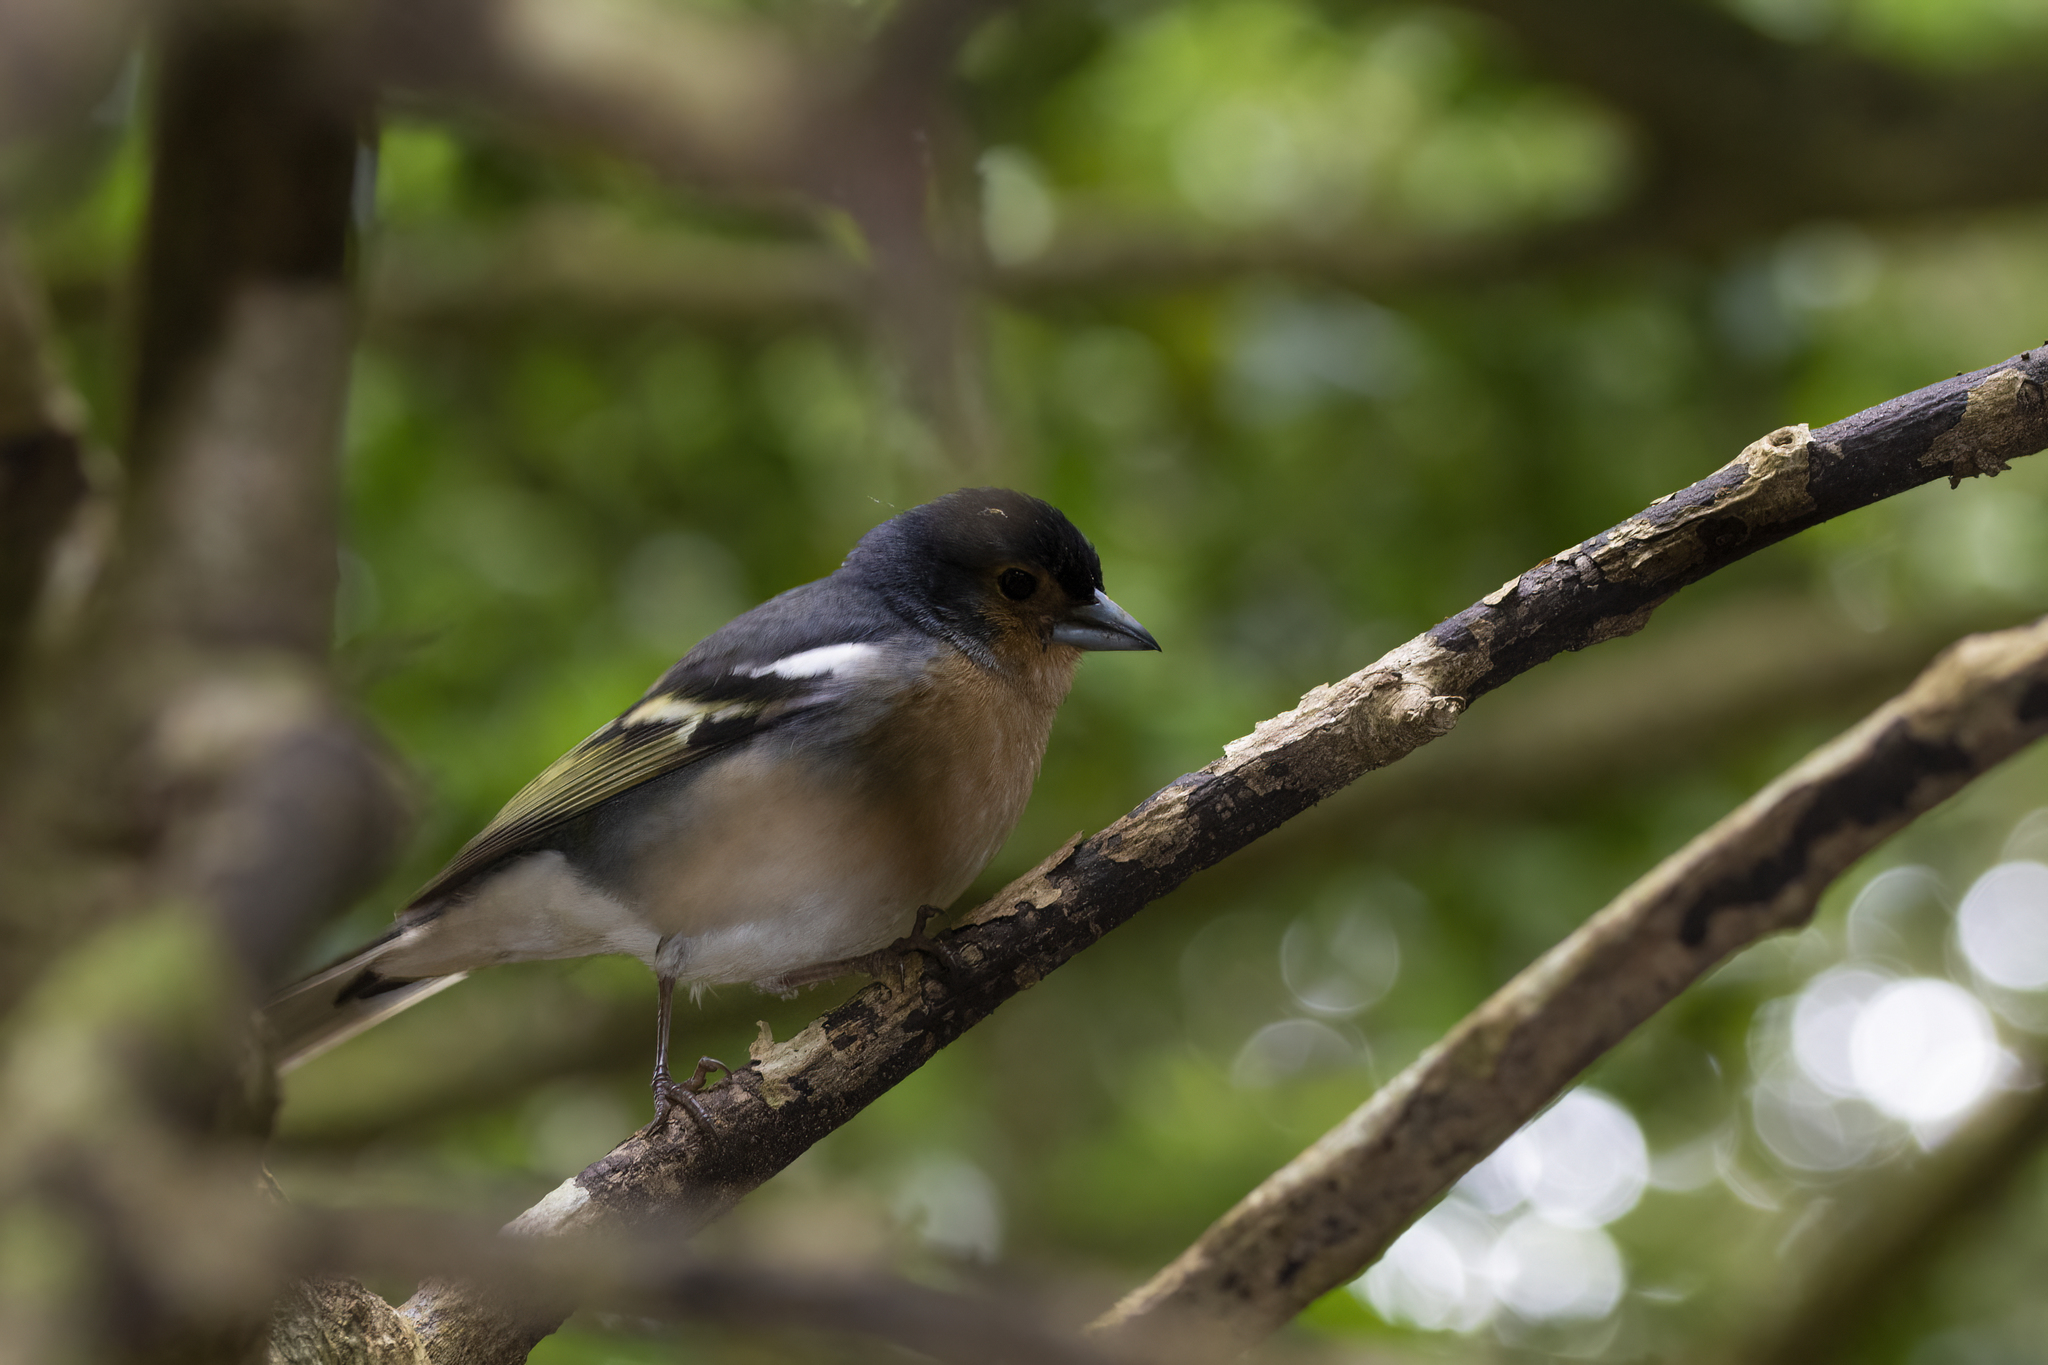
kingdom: Animalia
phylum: Chordata
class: Aves
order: Passeriformes
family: Fringillidae
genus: Fringilla
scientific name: Fringilla canariensis
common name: Canary islands chaffinch
